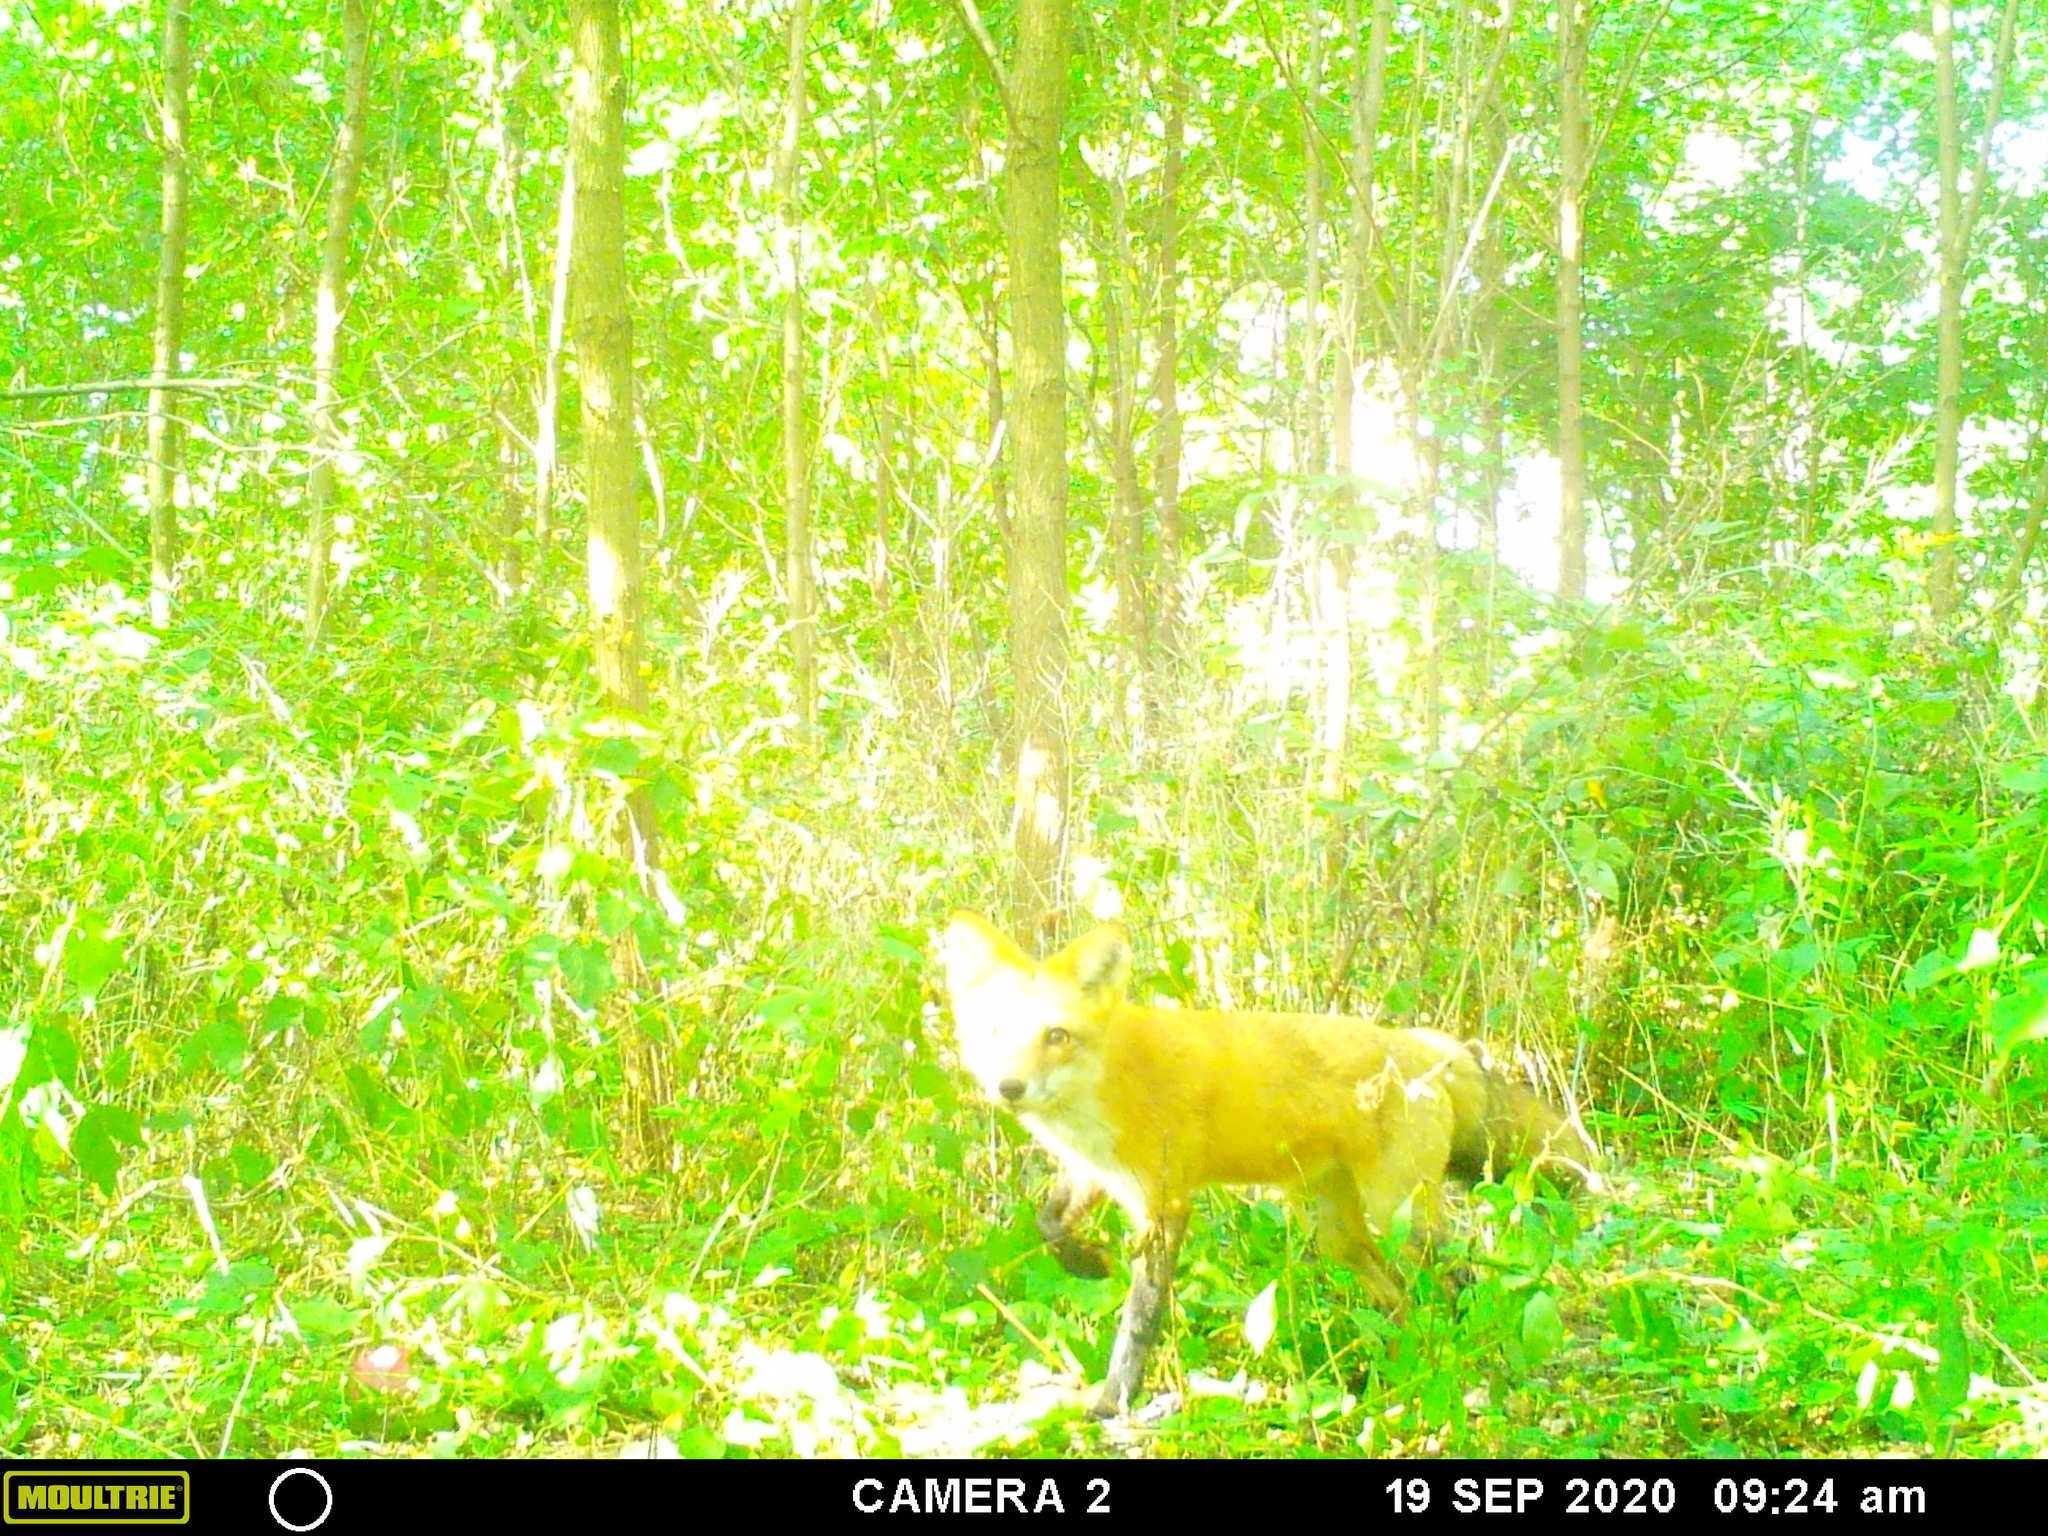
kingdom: Animalia
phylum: Chordata
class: Mammalia
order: Carnivora
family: Canidae
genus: Vulpes
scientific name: Vulpes vulpes
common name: Red fox
